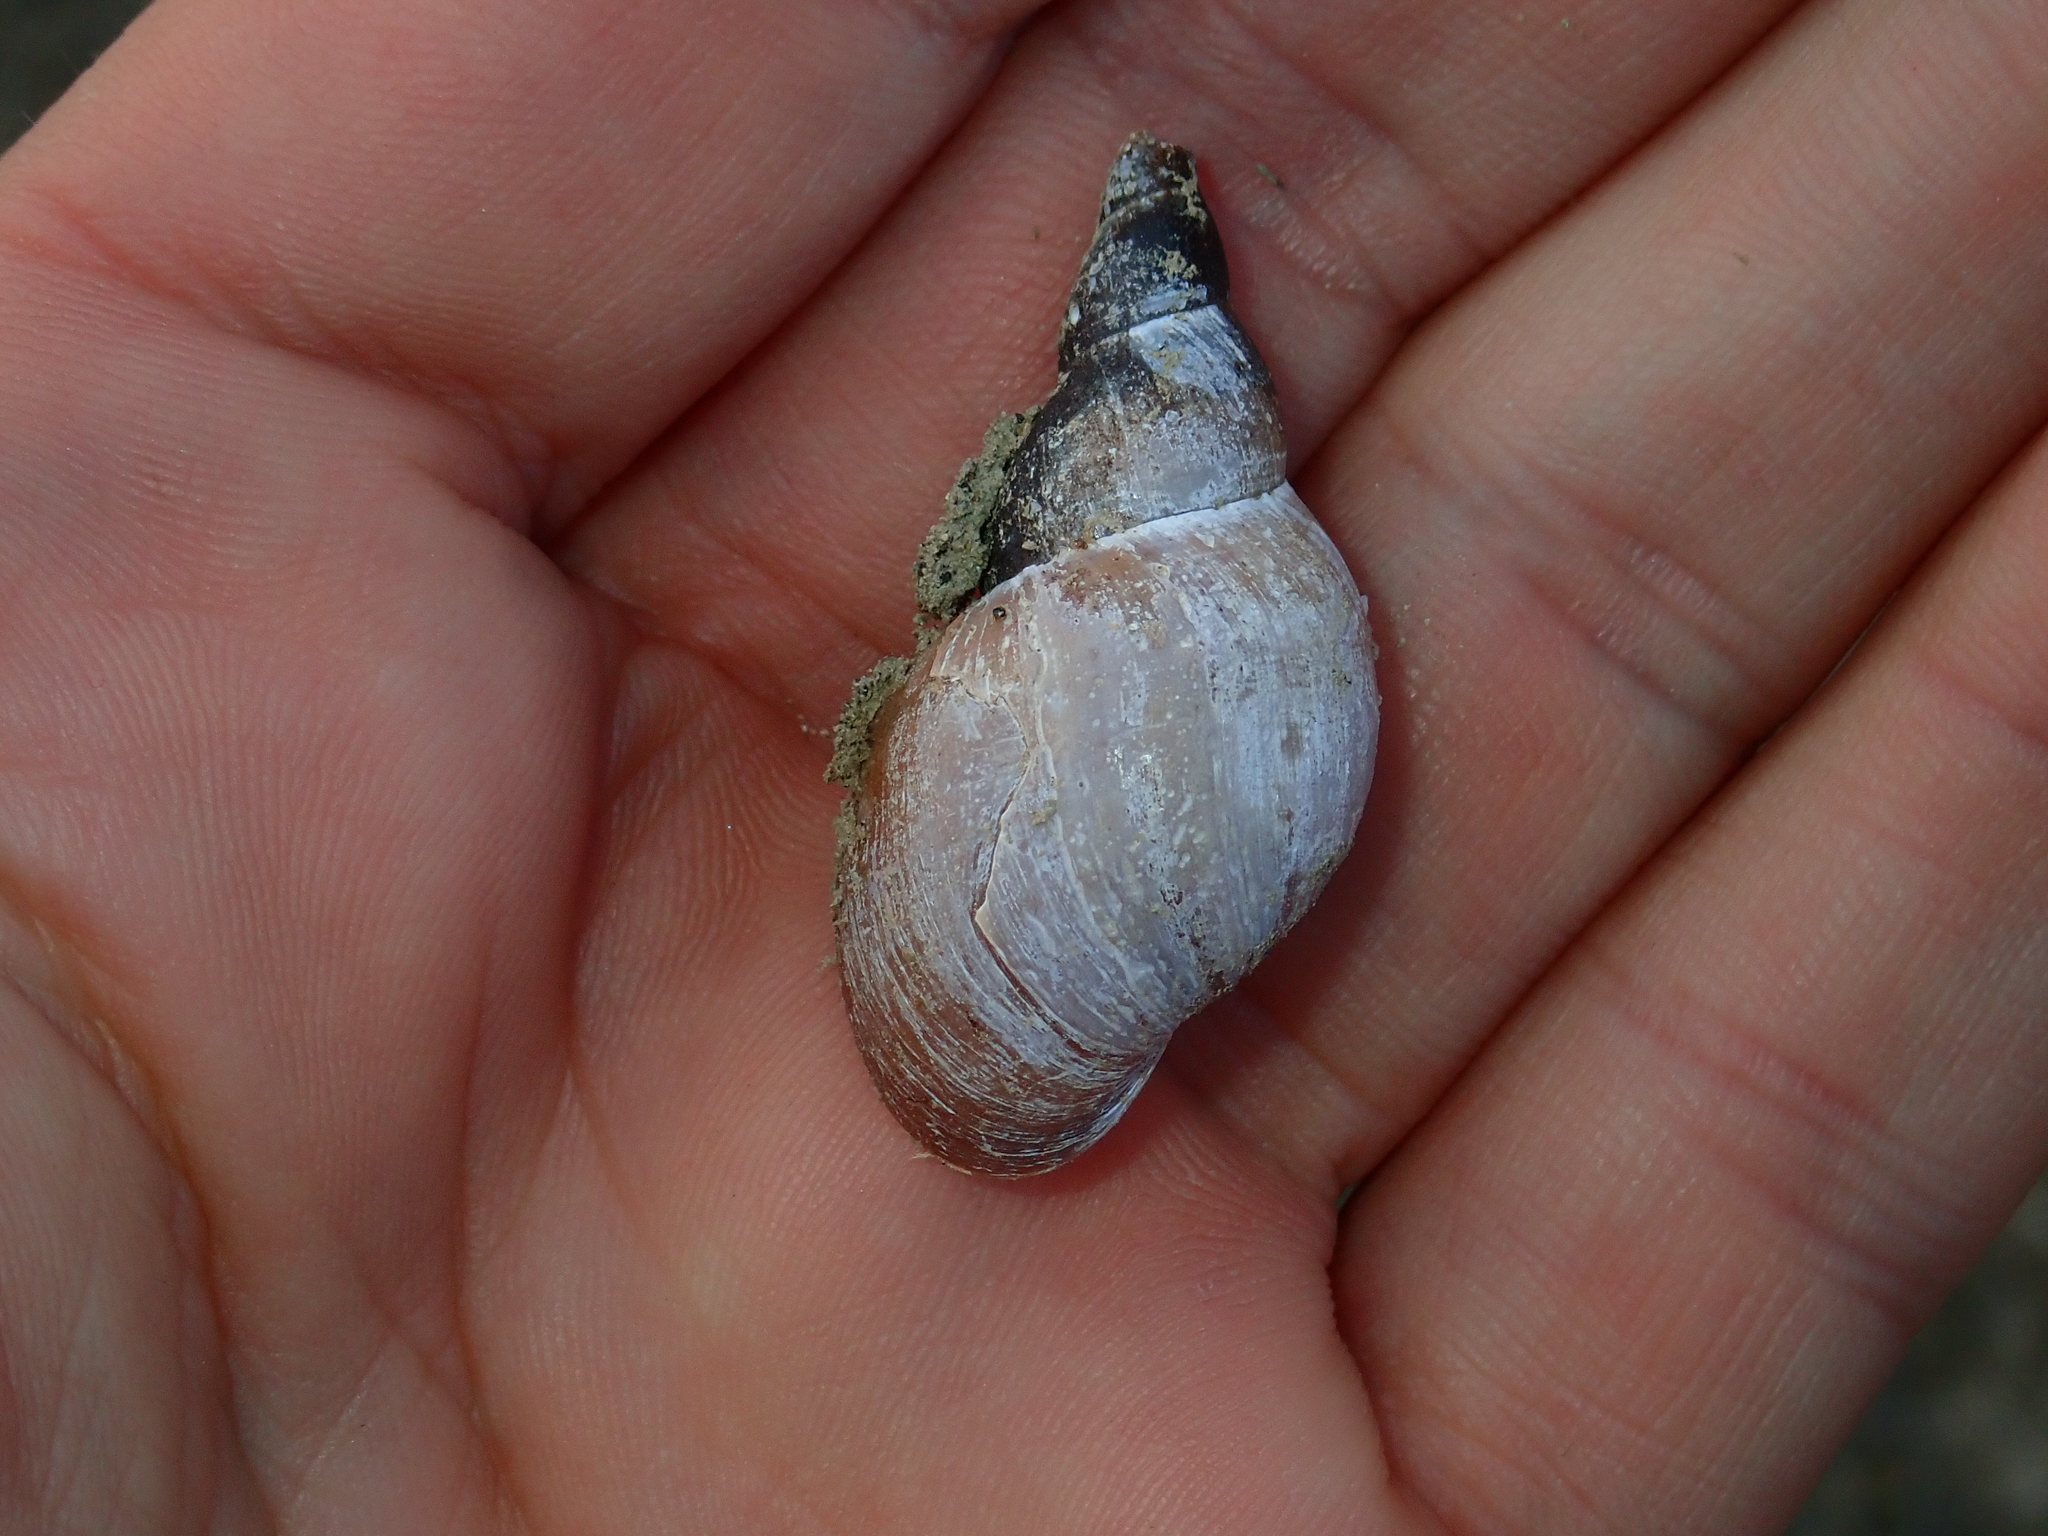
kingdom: Animalia
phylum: Mollusca
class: Gastropoda
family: Lymnaeidae
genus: Lymnaea
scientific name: Lymnaea stagnalis
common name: Great pond snail
